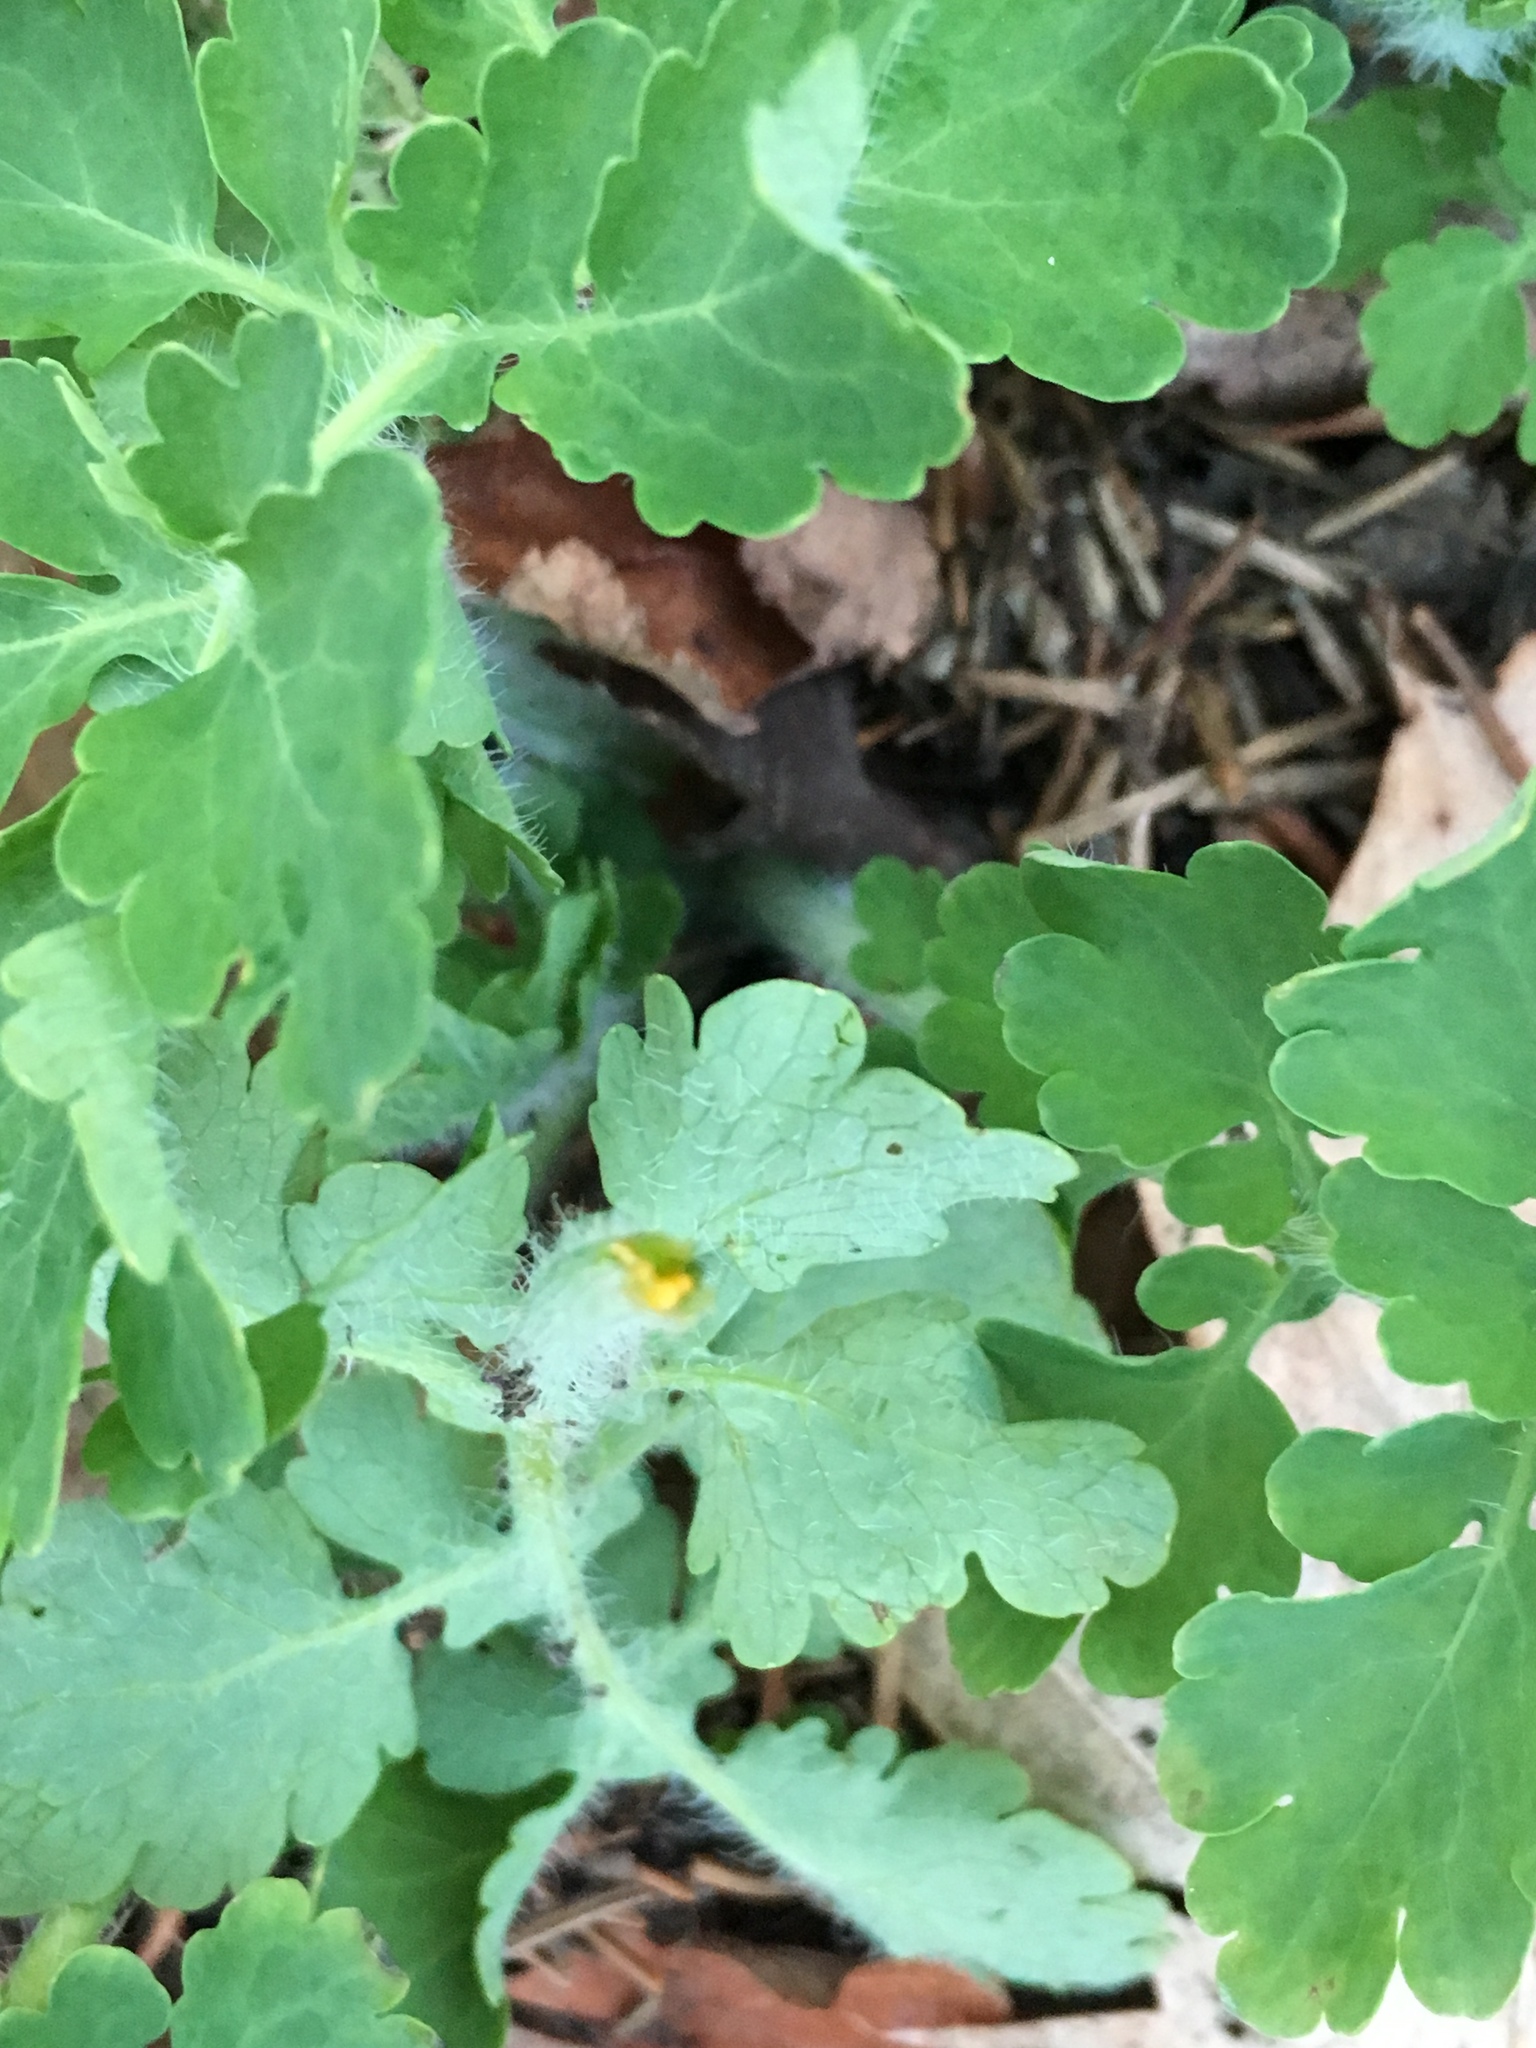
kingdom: Plantae
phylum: Tracheophyta
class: Magnoliopsida
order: Ranunculales
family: Papaveraceae
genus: Chelidonium
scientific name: Chelidonium majus
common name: Greater celandine
